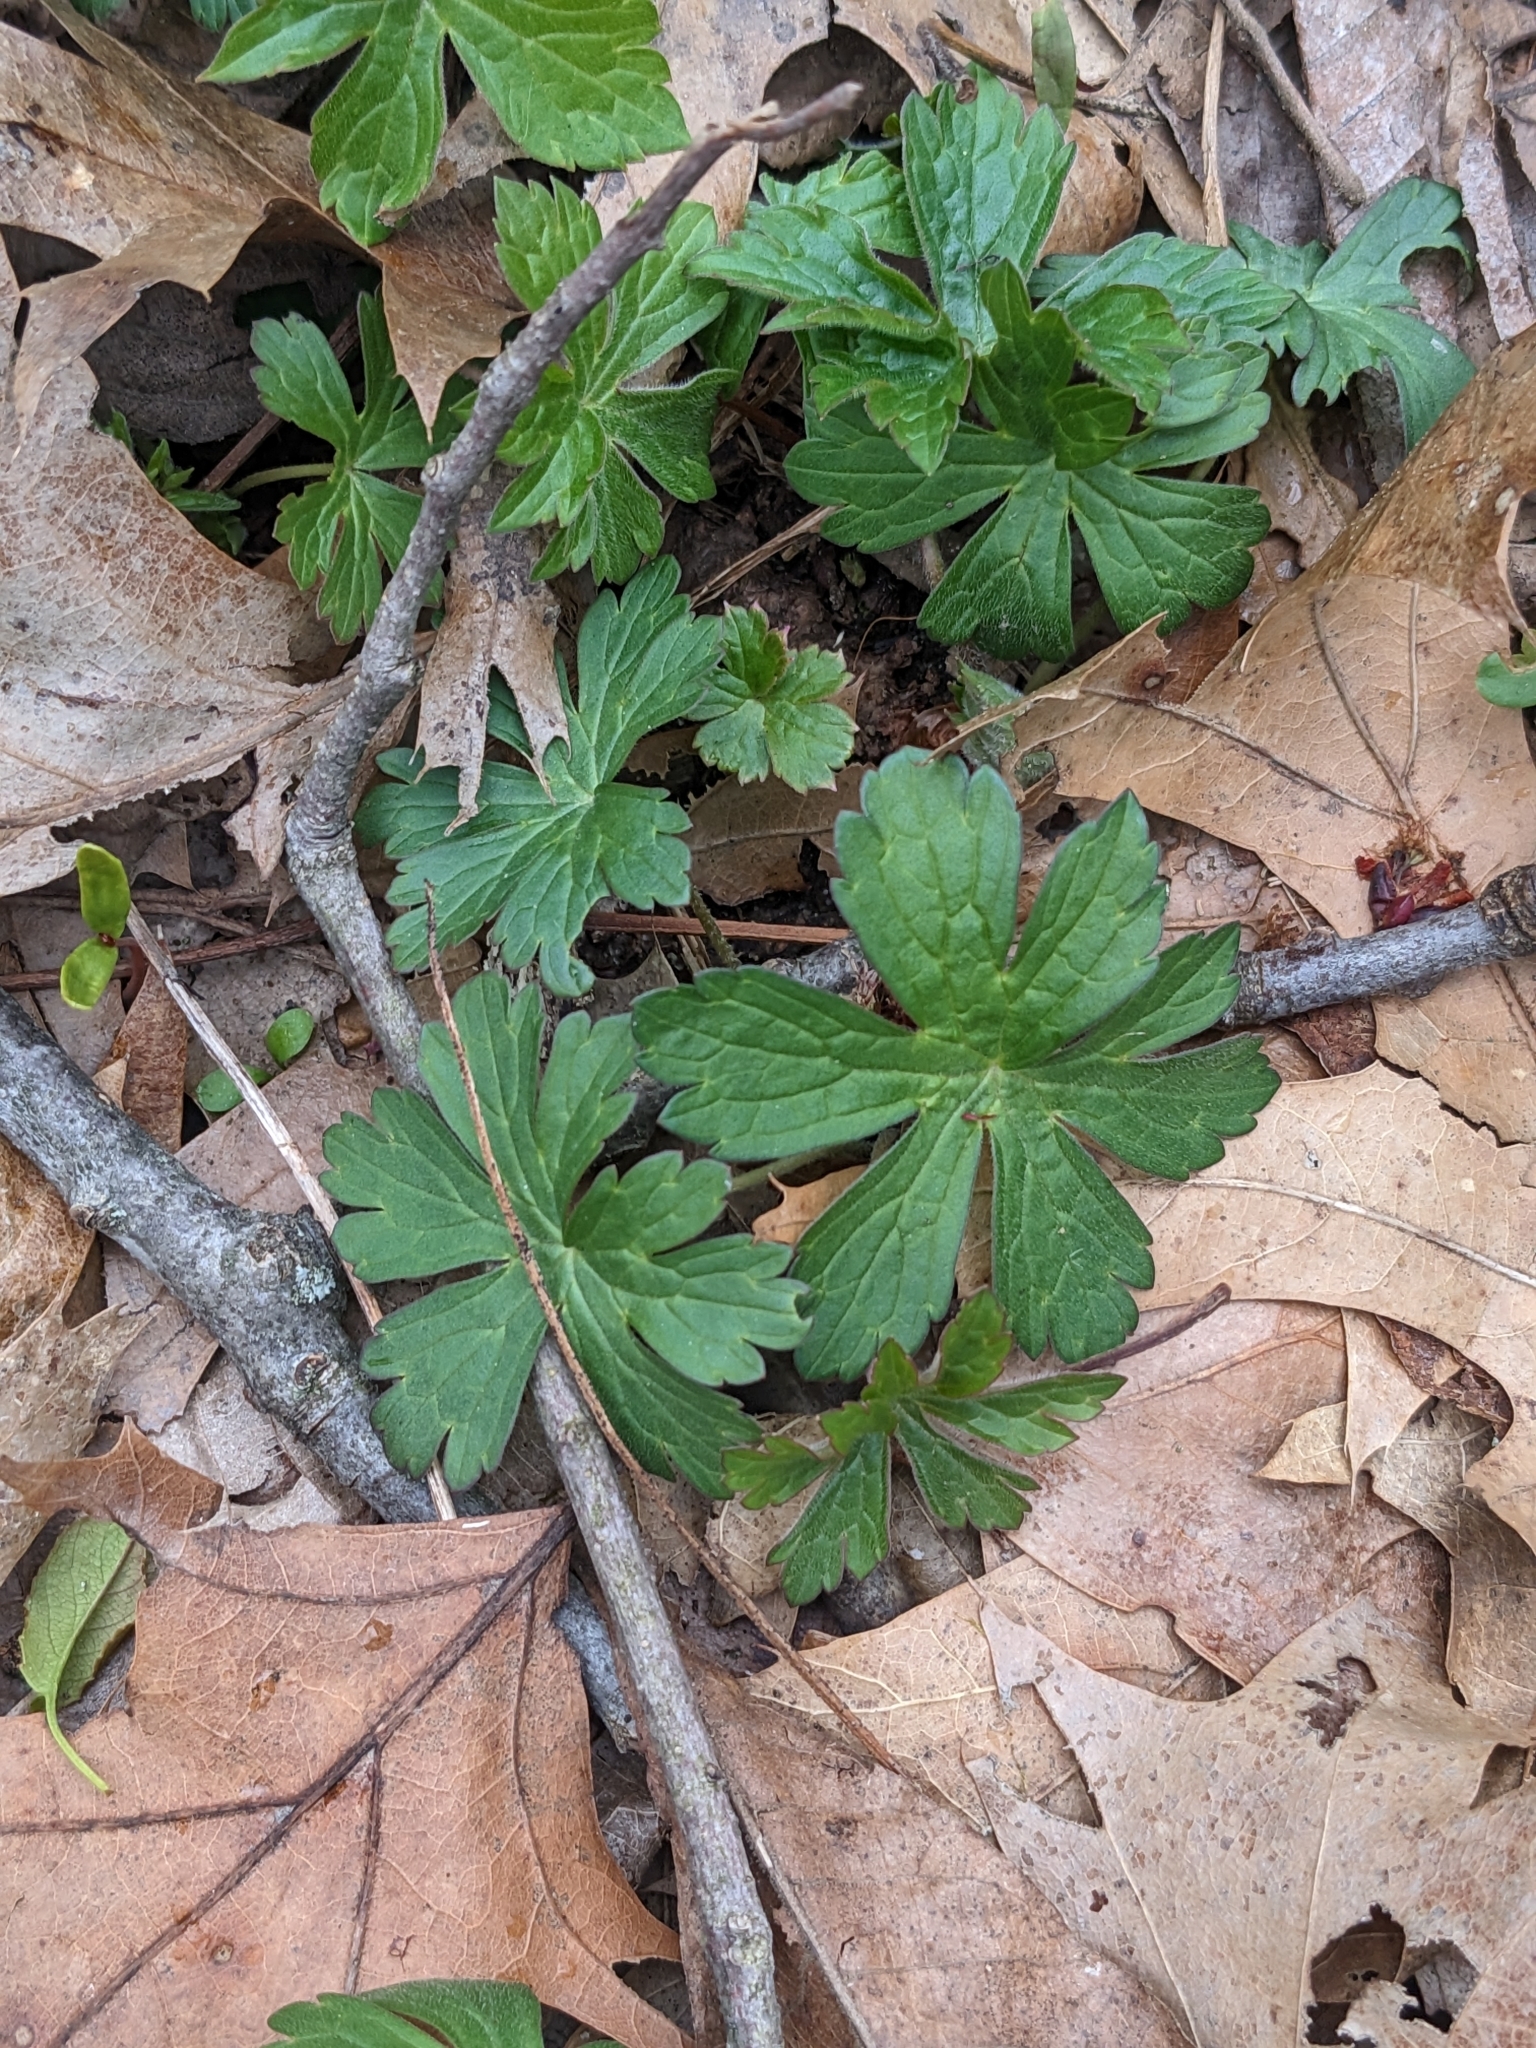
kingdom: Plantae
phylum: Tracheophyta
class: Magnoliopsida
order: Geraniales
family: Geraniaceae
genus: Geranium
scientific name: Geranium maculatum
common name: Spotted geranium
